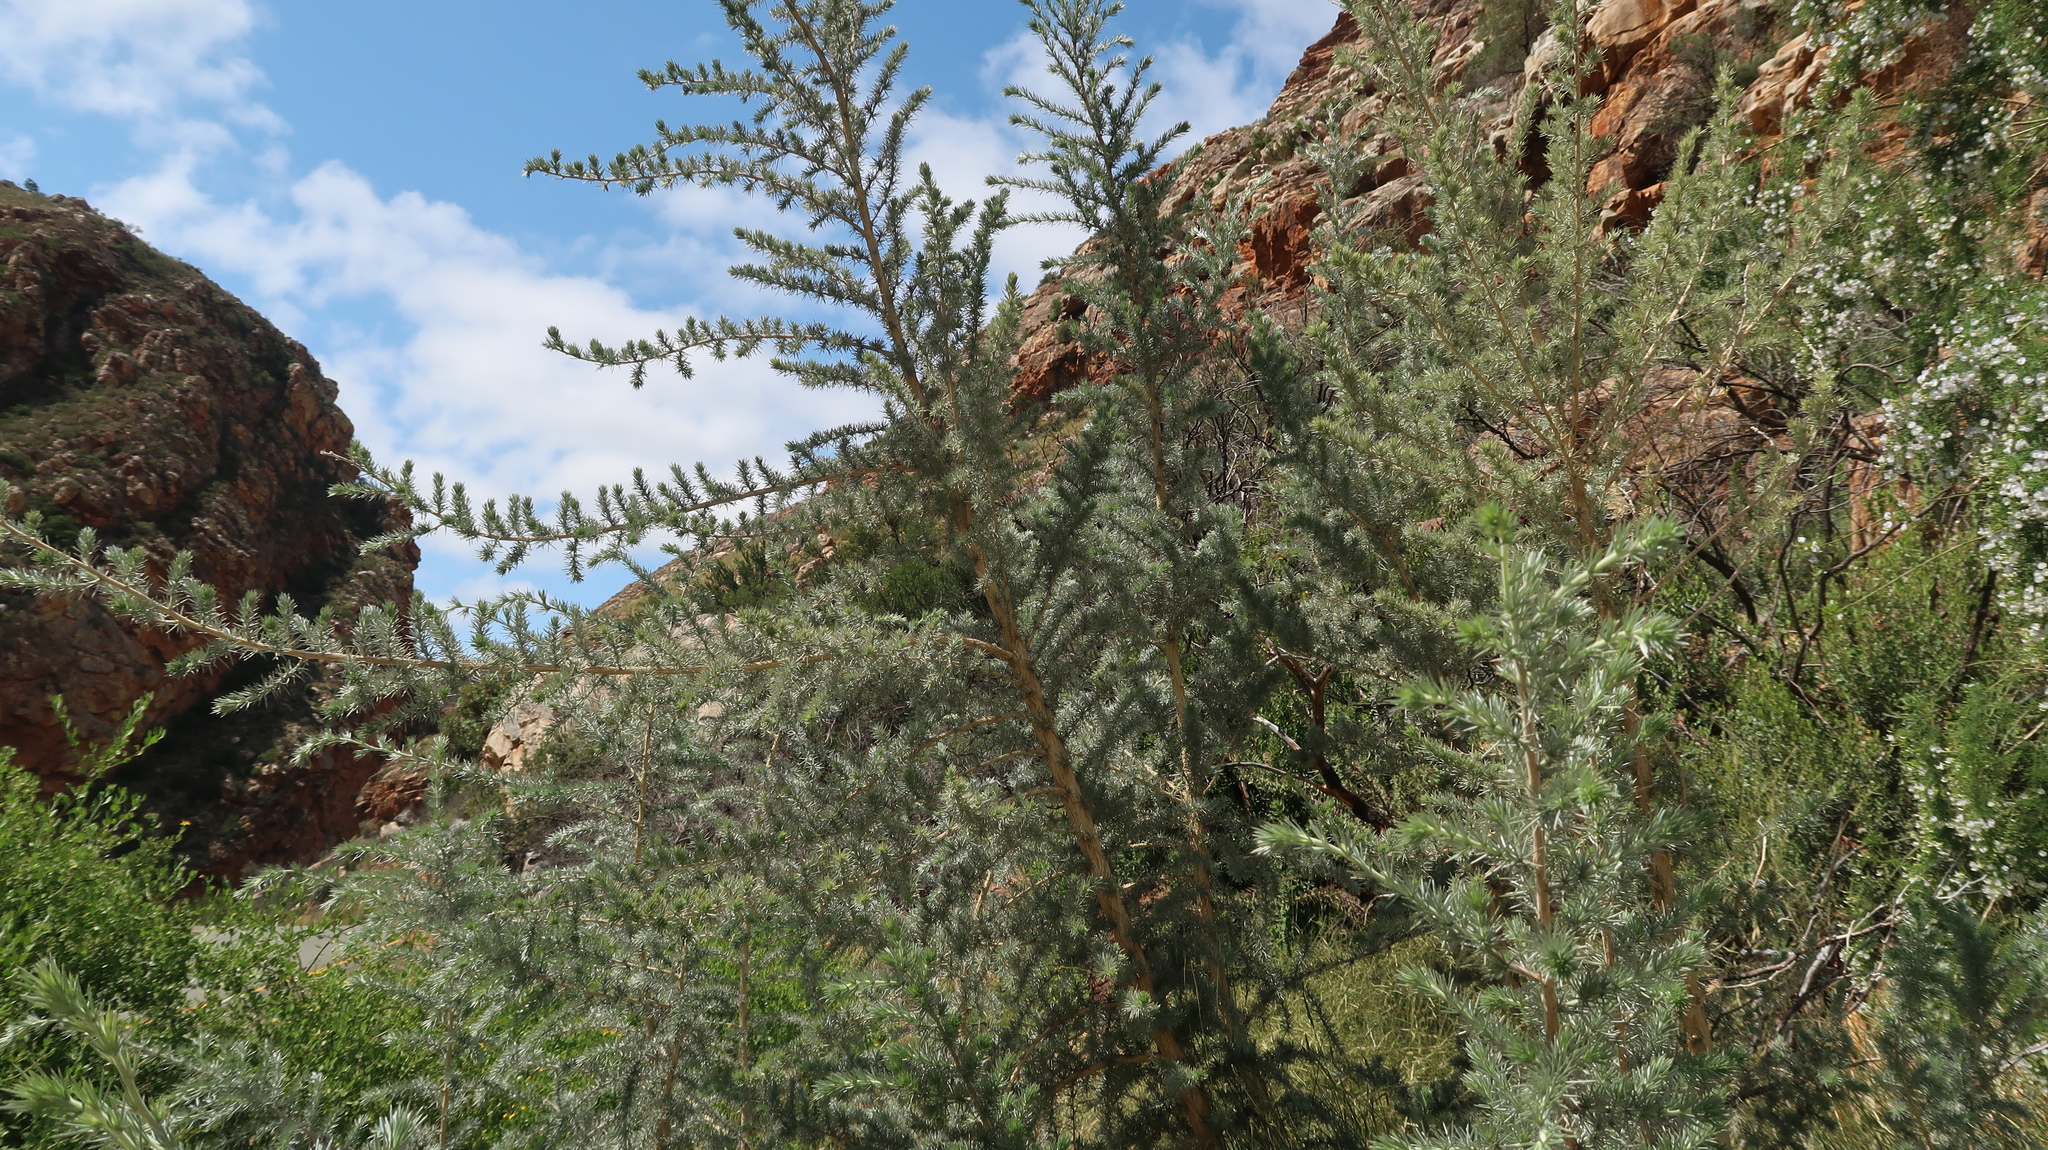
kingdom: Plantae
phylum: Tracheophyta
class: Magnoliopsida
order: Fabales
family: Fabaceae
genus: Aspalathus
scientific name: Aspalathus hystrix
